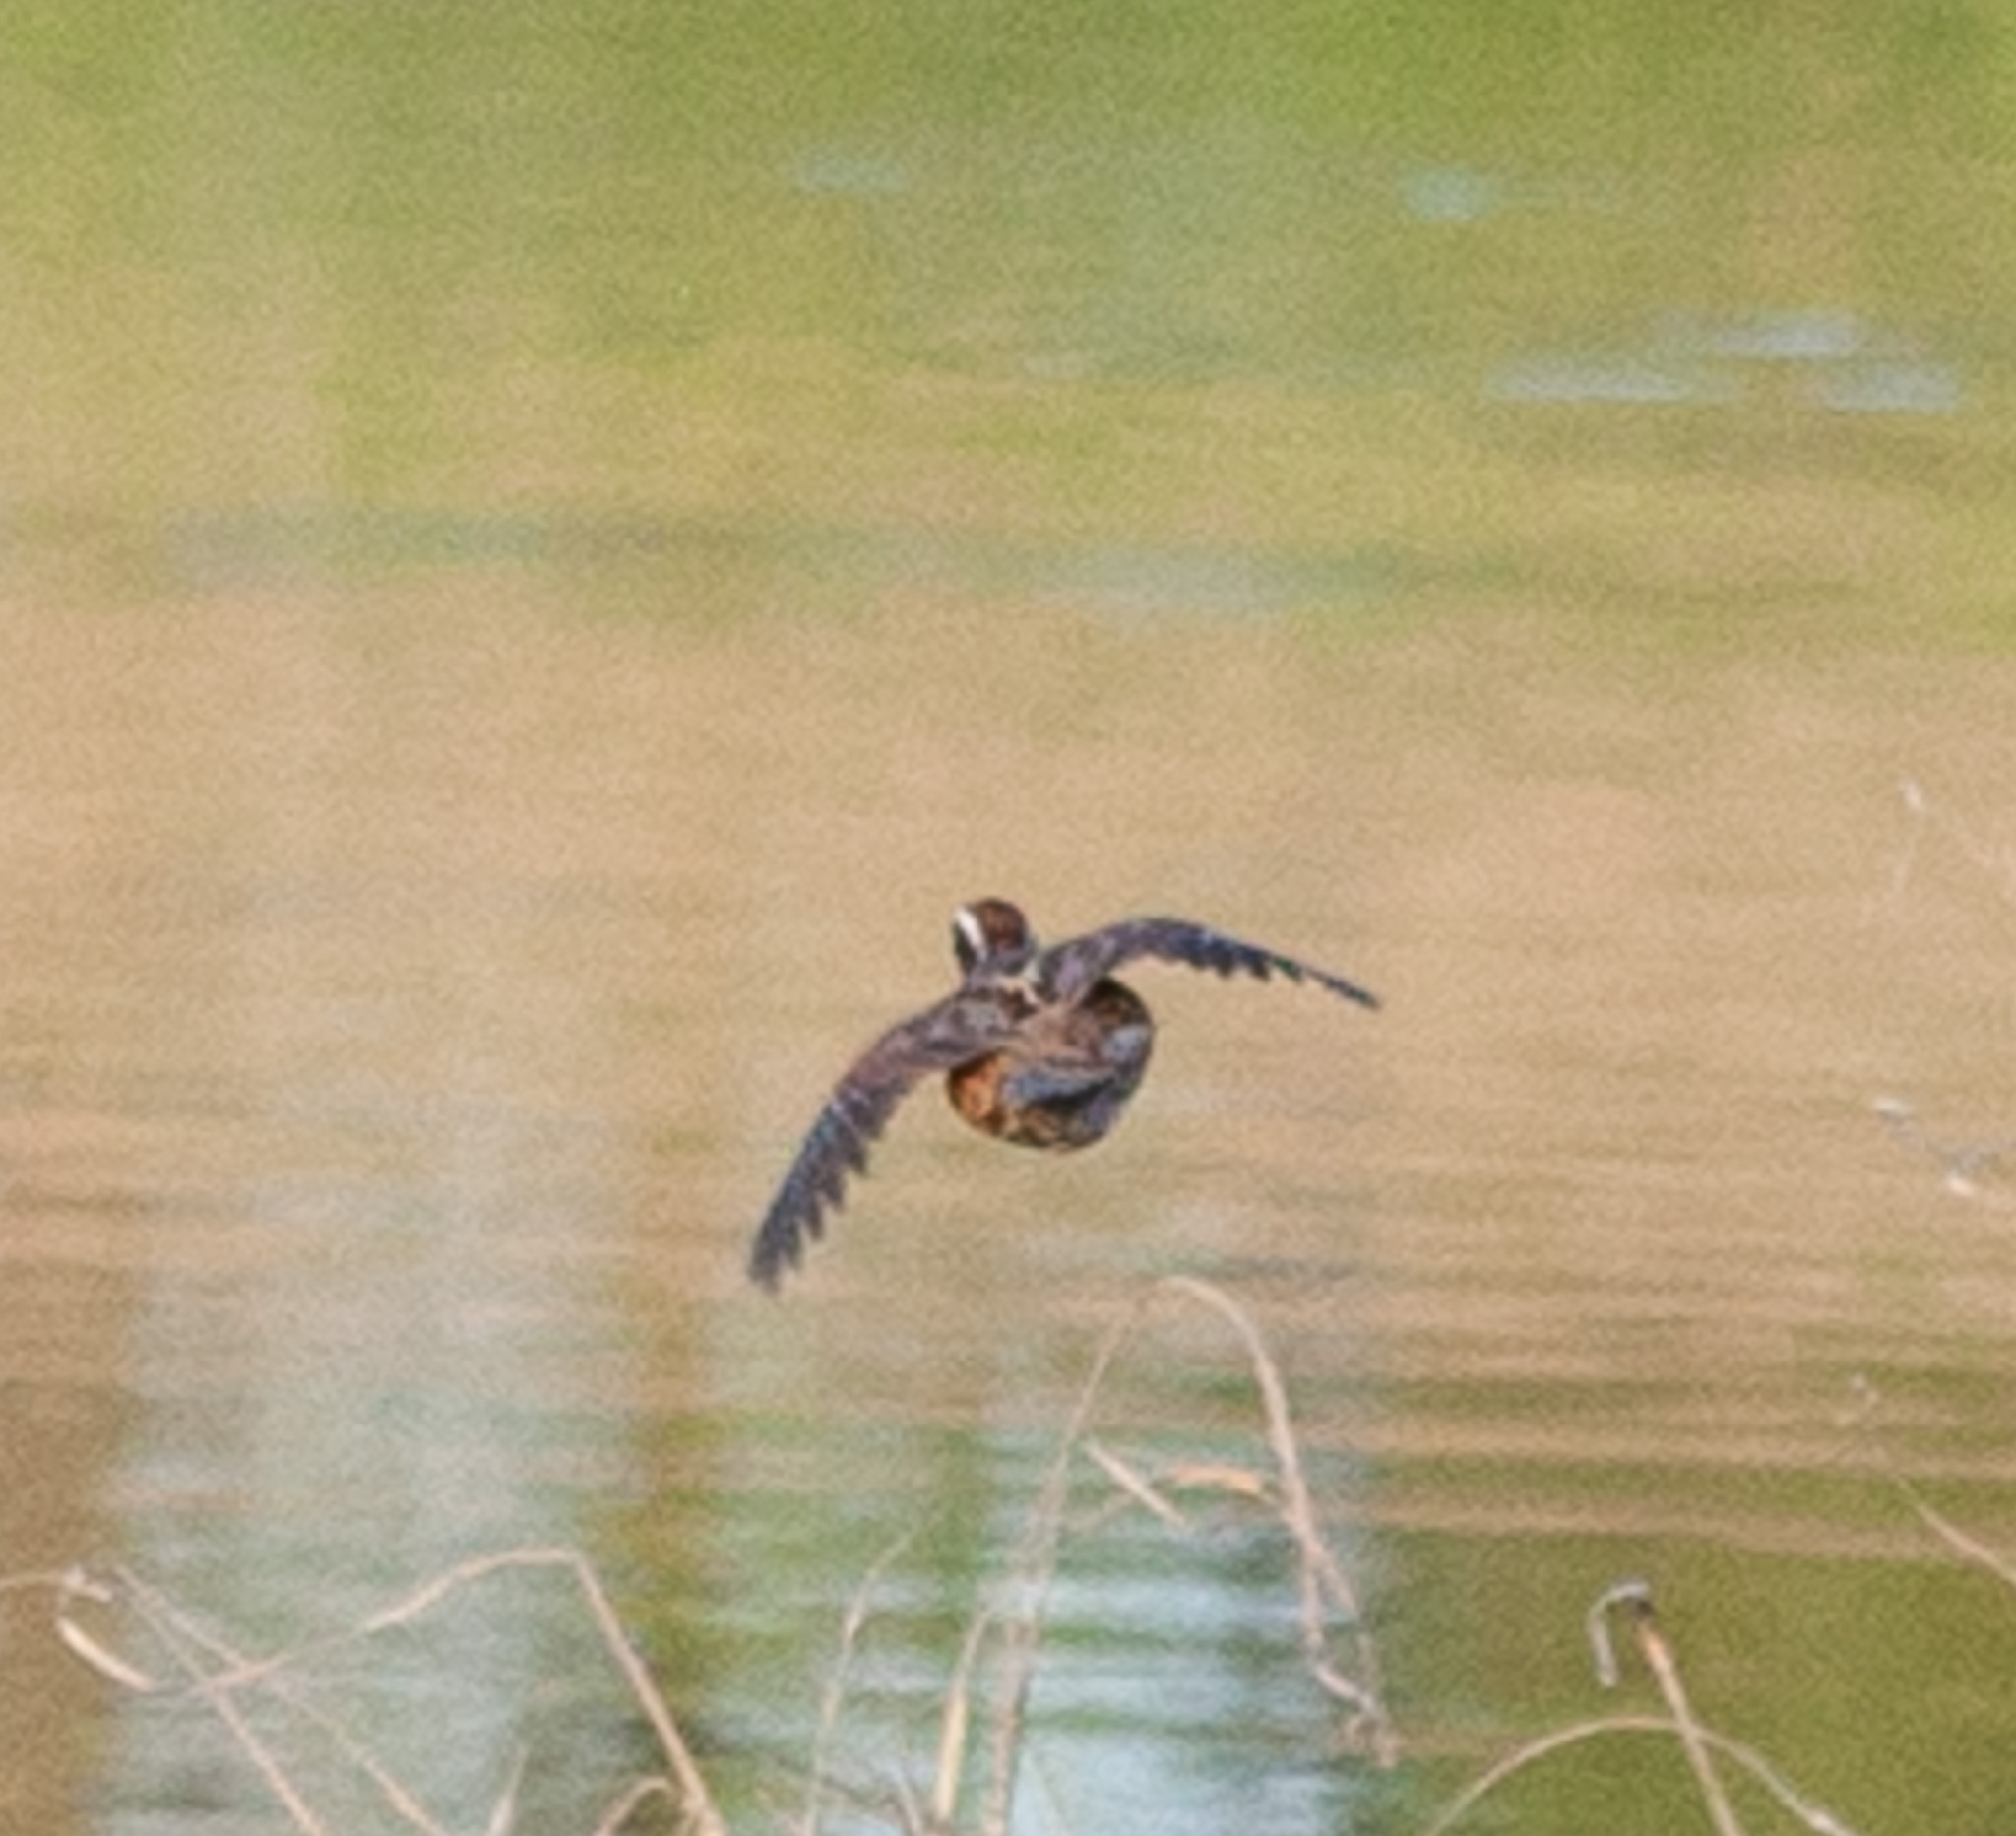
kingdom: Animalia
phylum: Chordata
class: Aves
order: Galliformes
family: Odontophoridae
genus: Colinus
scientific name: Colinus virginianus
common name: Northern bobwhite
